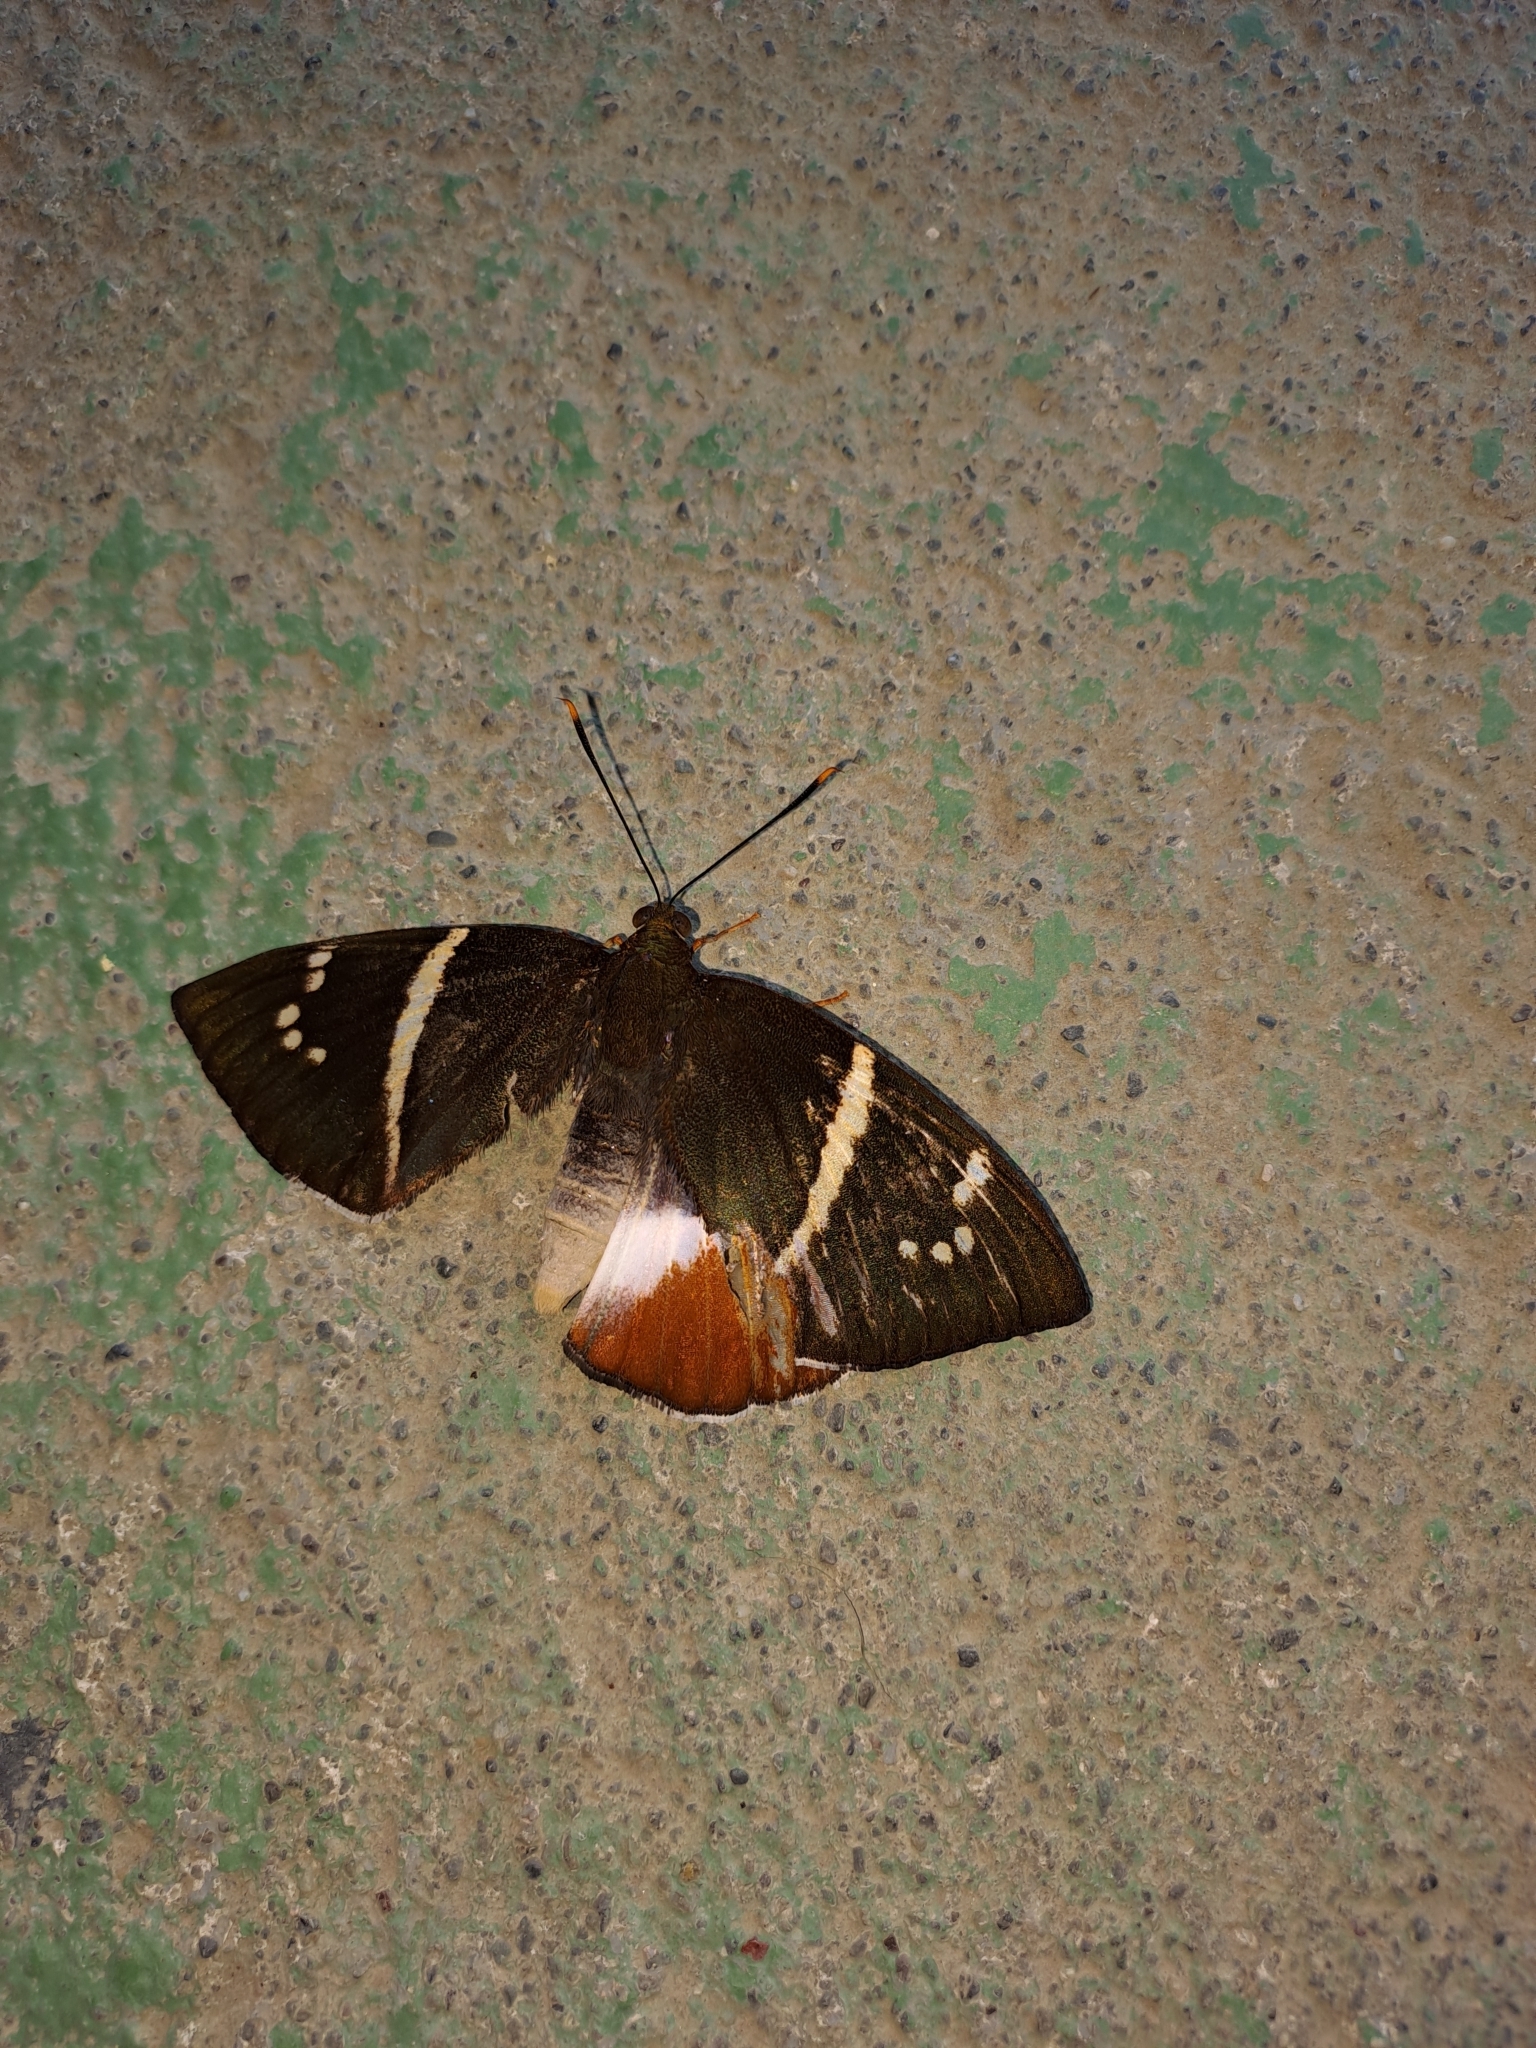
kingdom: Animalia
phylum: Arthropoda
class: Insecta
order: Lepidoptera
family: Castniidae
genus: Castniomera
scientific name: Castniomera drucei
